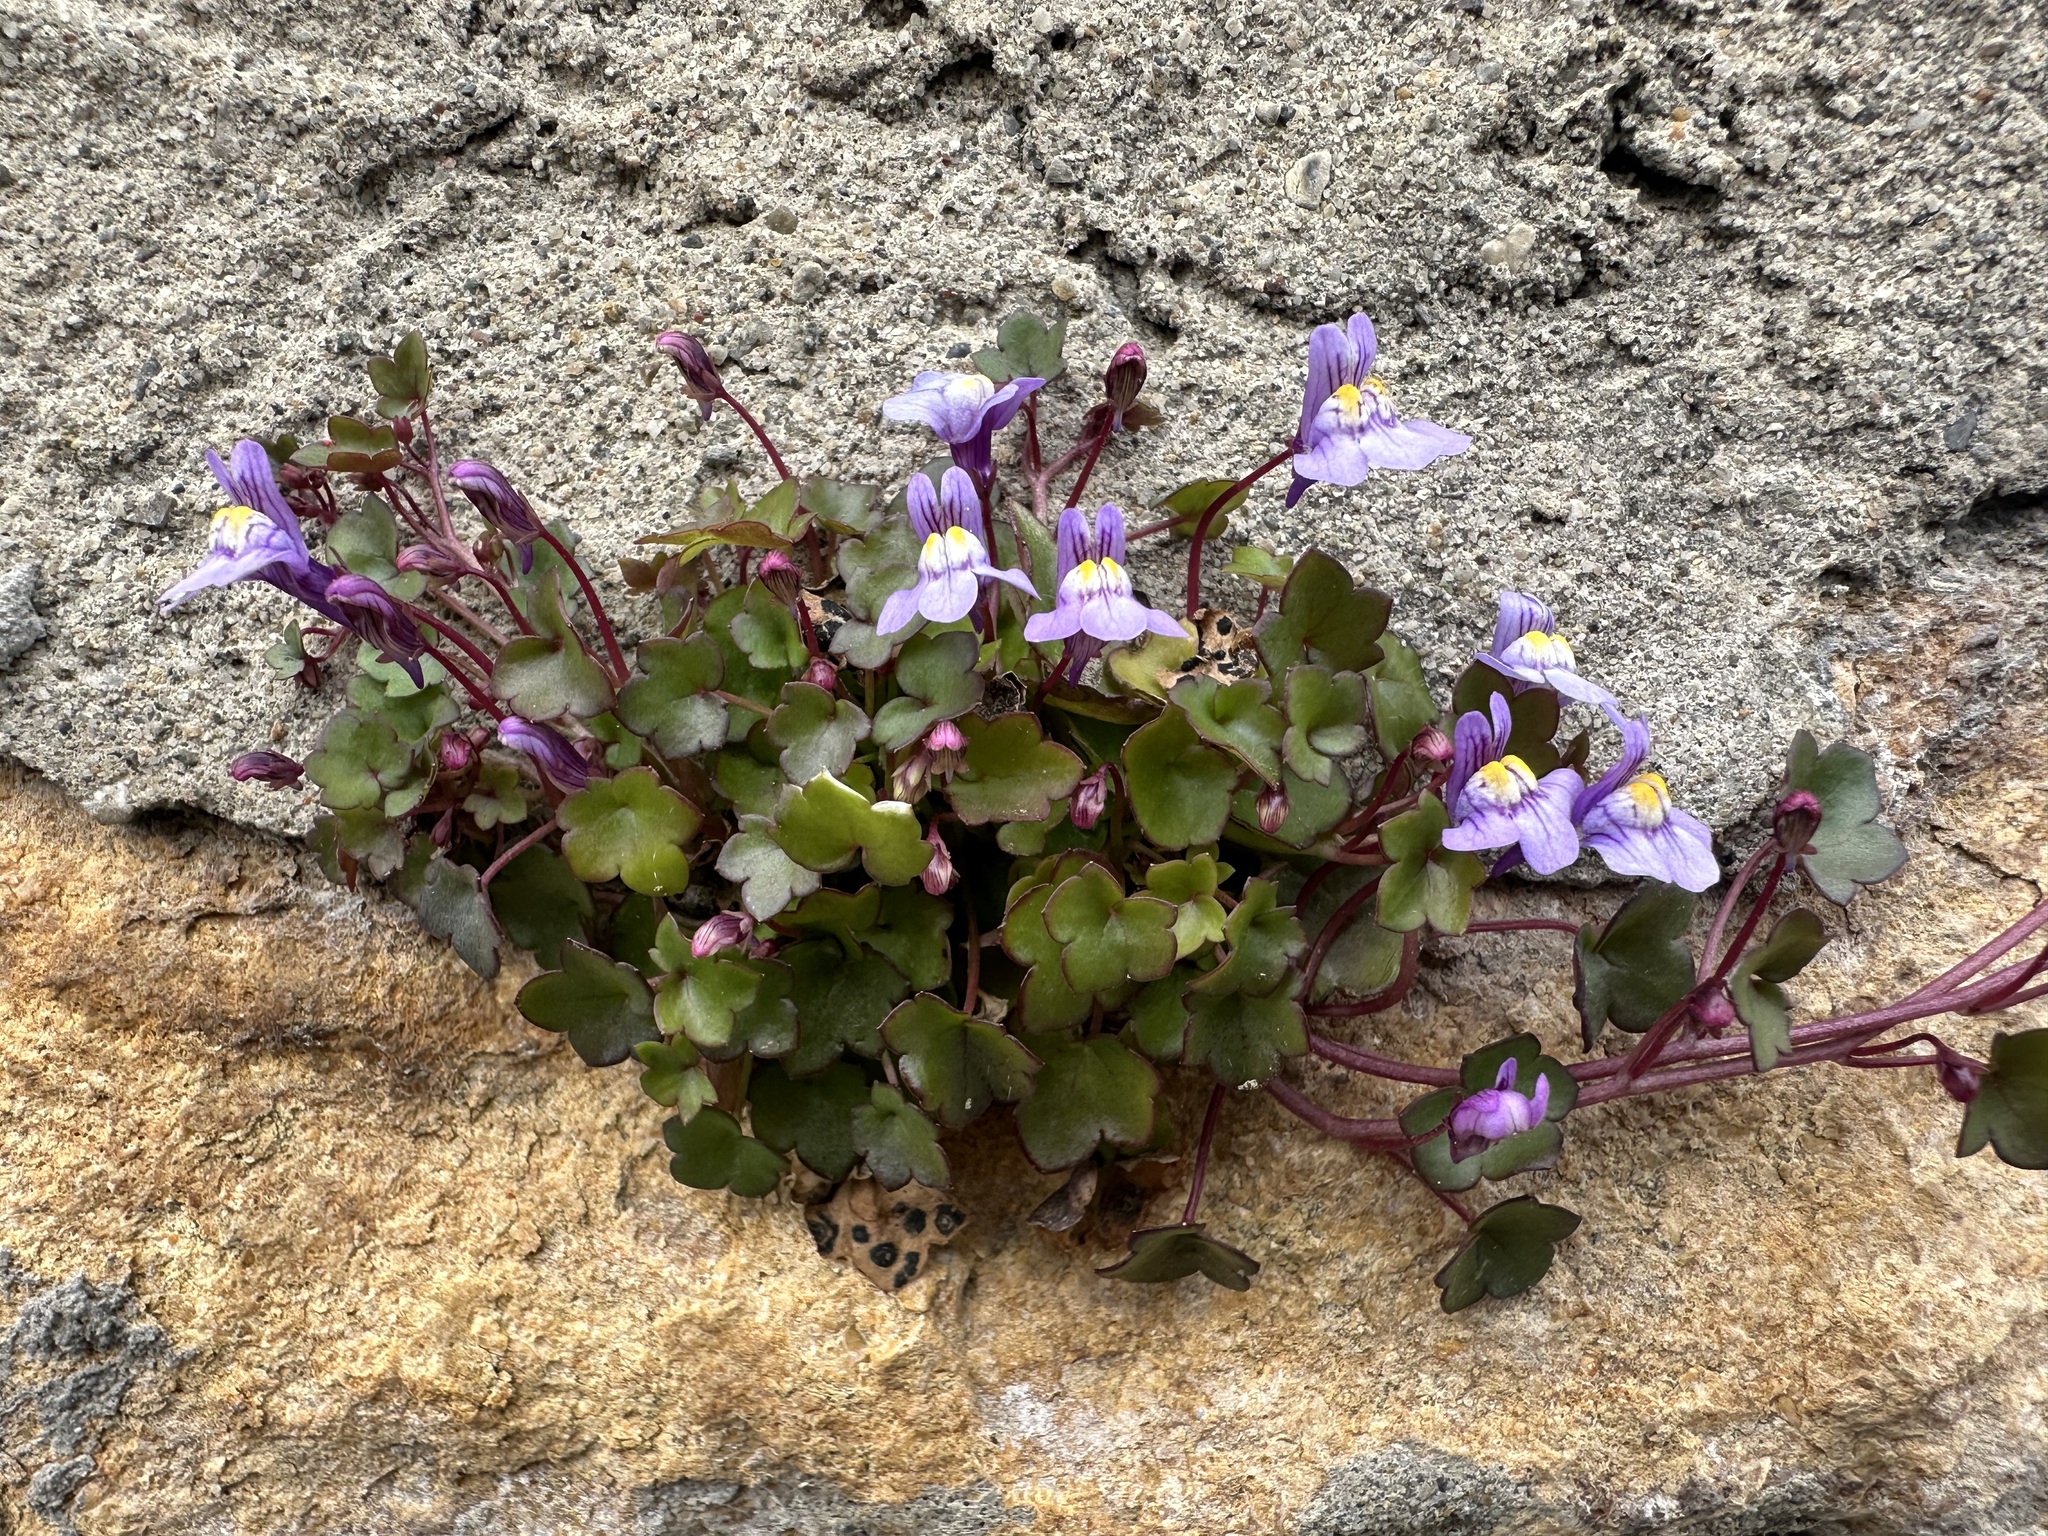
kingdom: Plantae
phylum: Tracheophyta
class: Magnoliopsida
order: Lamiales
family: Plantaginaceae
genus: Cymbalaria
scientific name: Cymbalaria muralis
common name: Ivy-leaved toadflax
